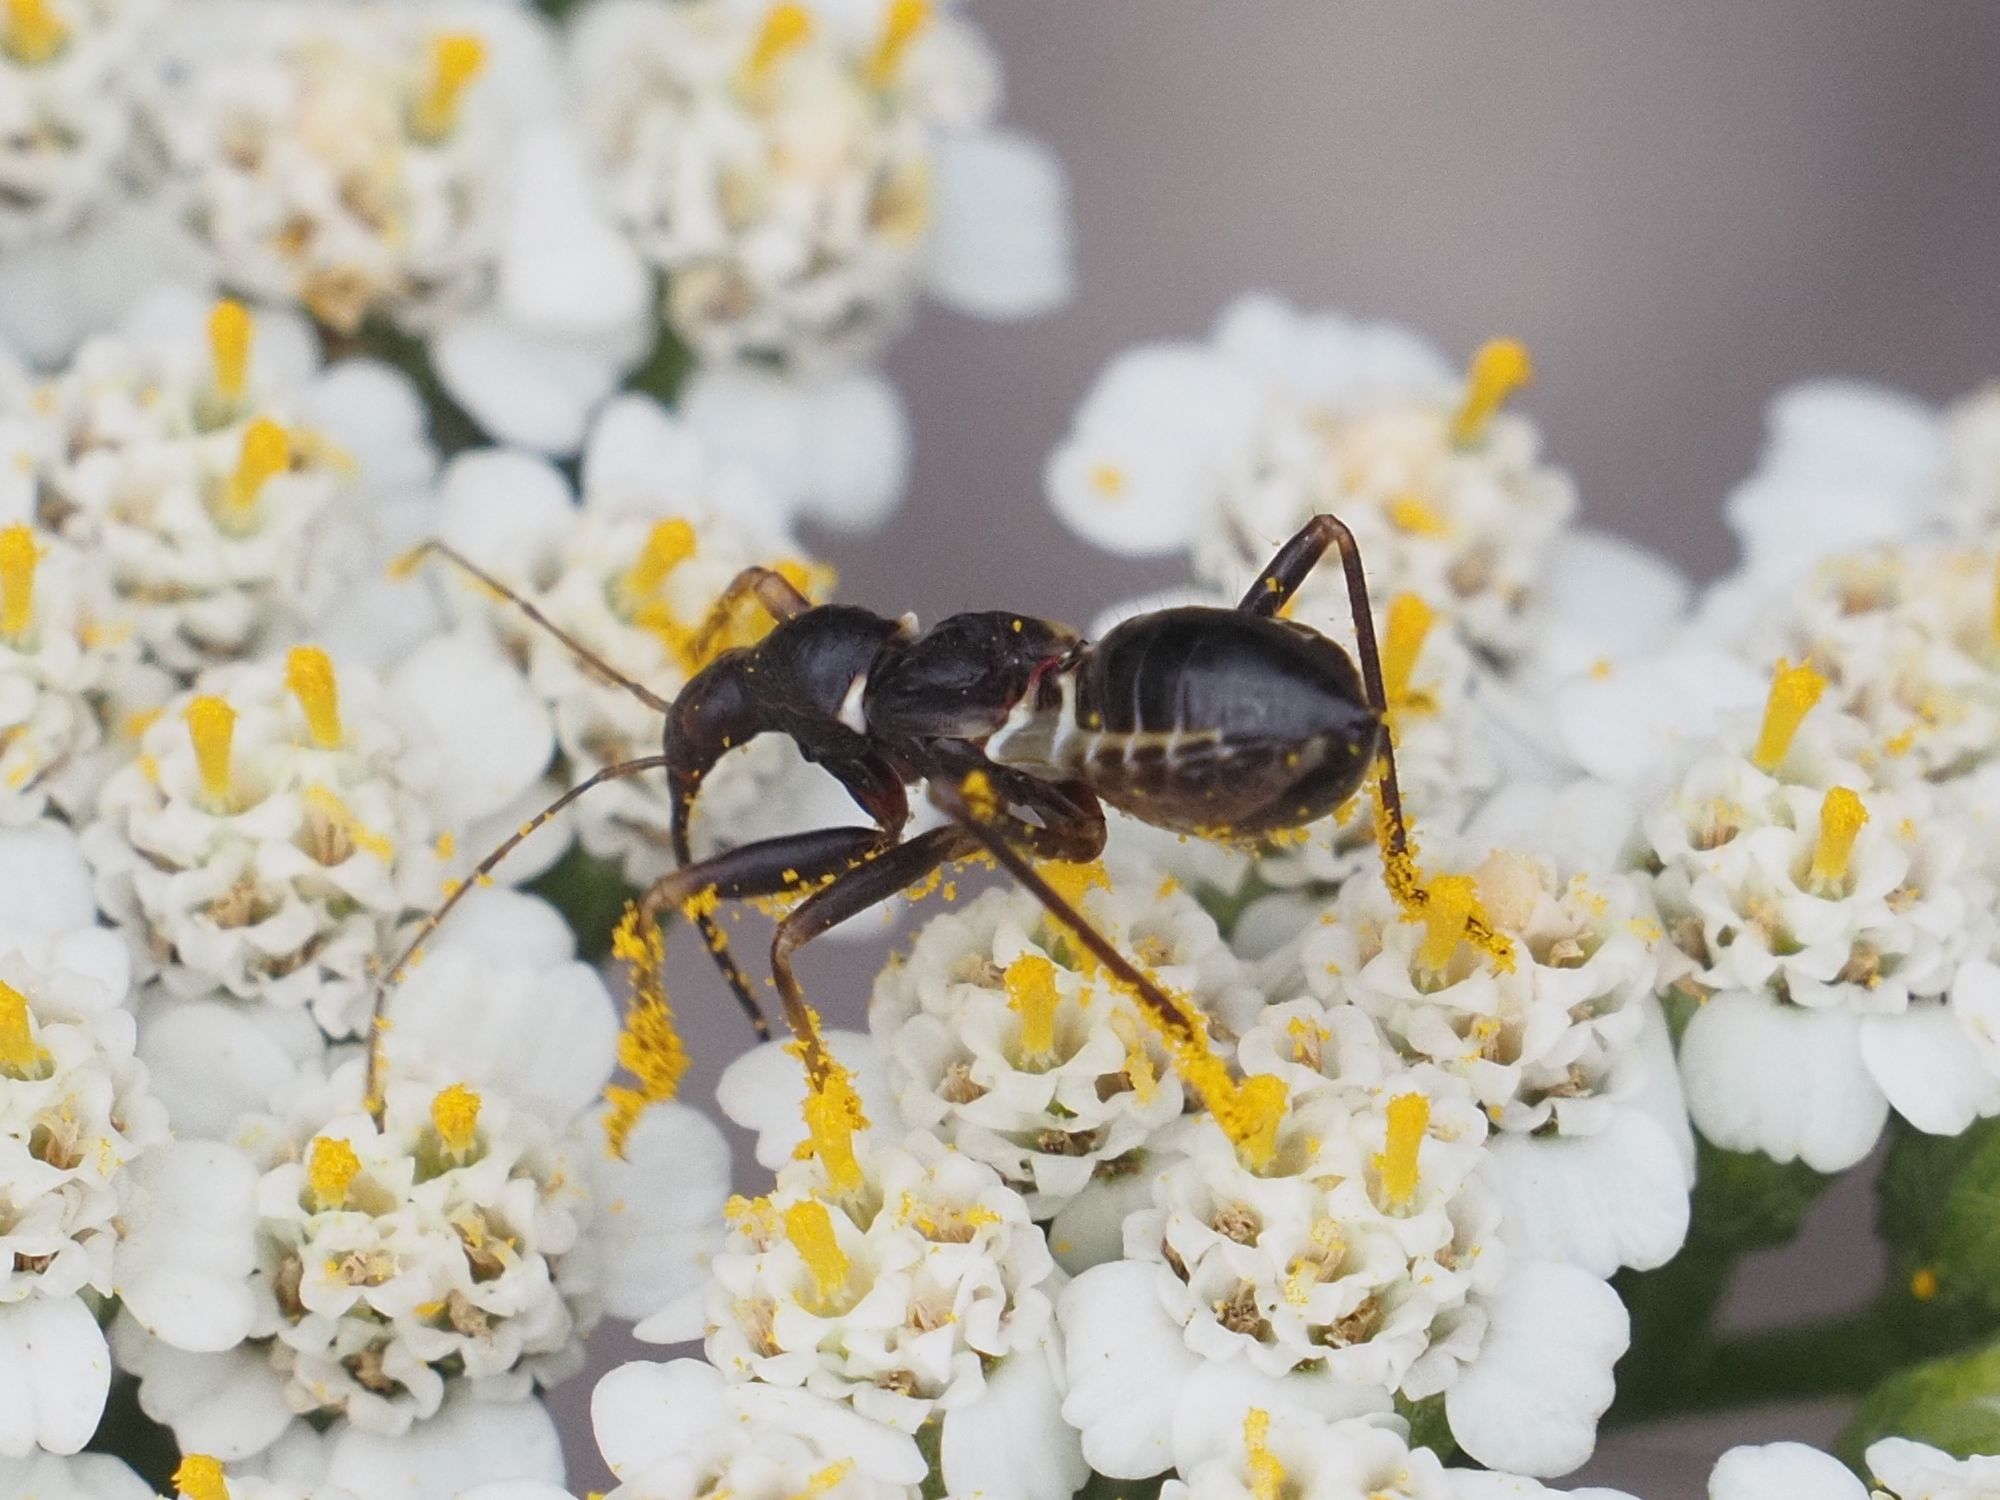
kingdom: Animalia
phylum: Arthropoda
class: Insecta
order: Hemiptera
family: Nabidae
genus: Himacerus
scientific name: Himacerus mirmicoides
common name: Ant damsel bug
